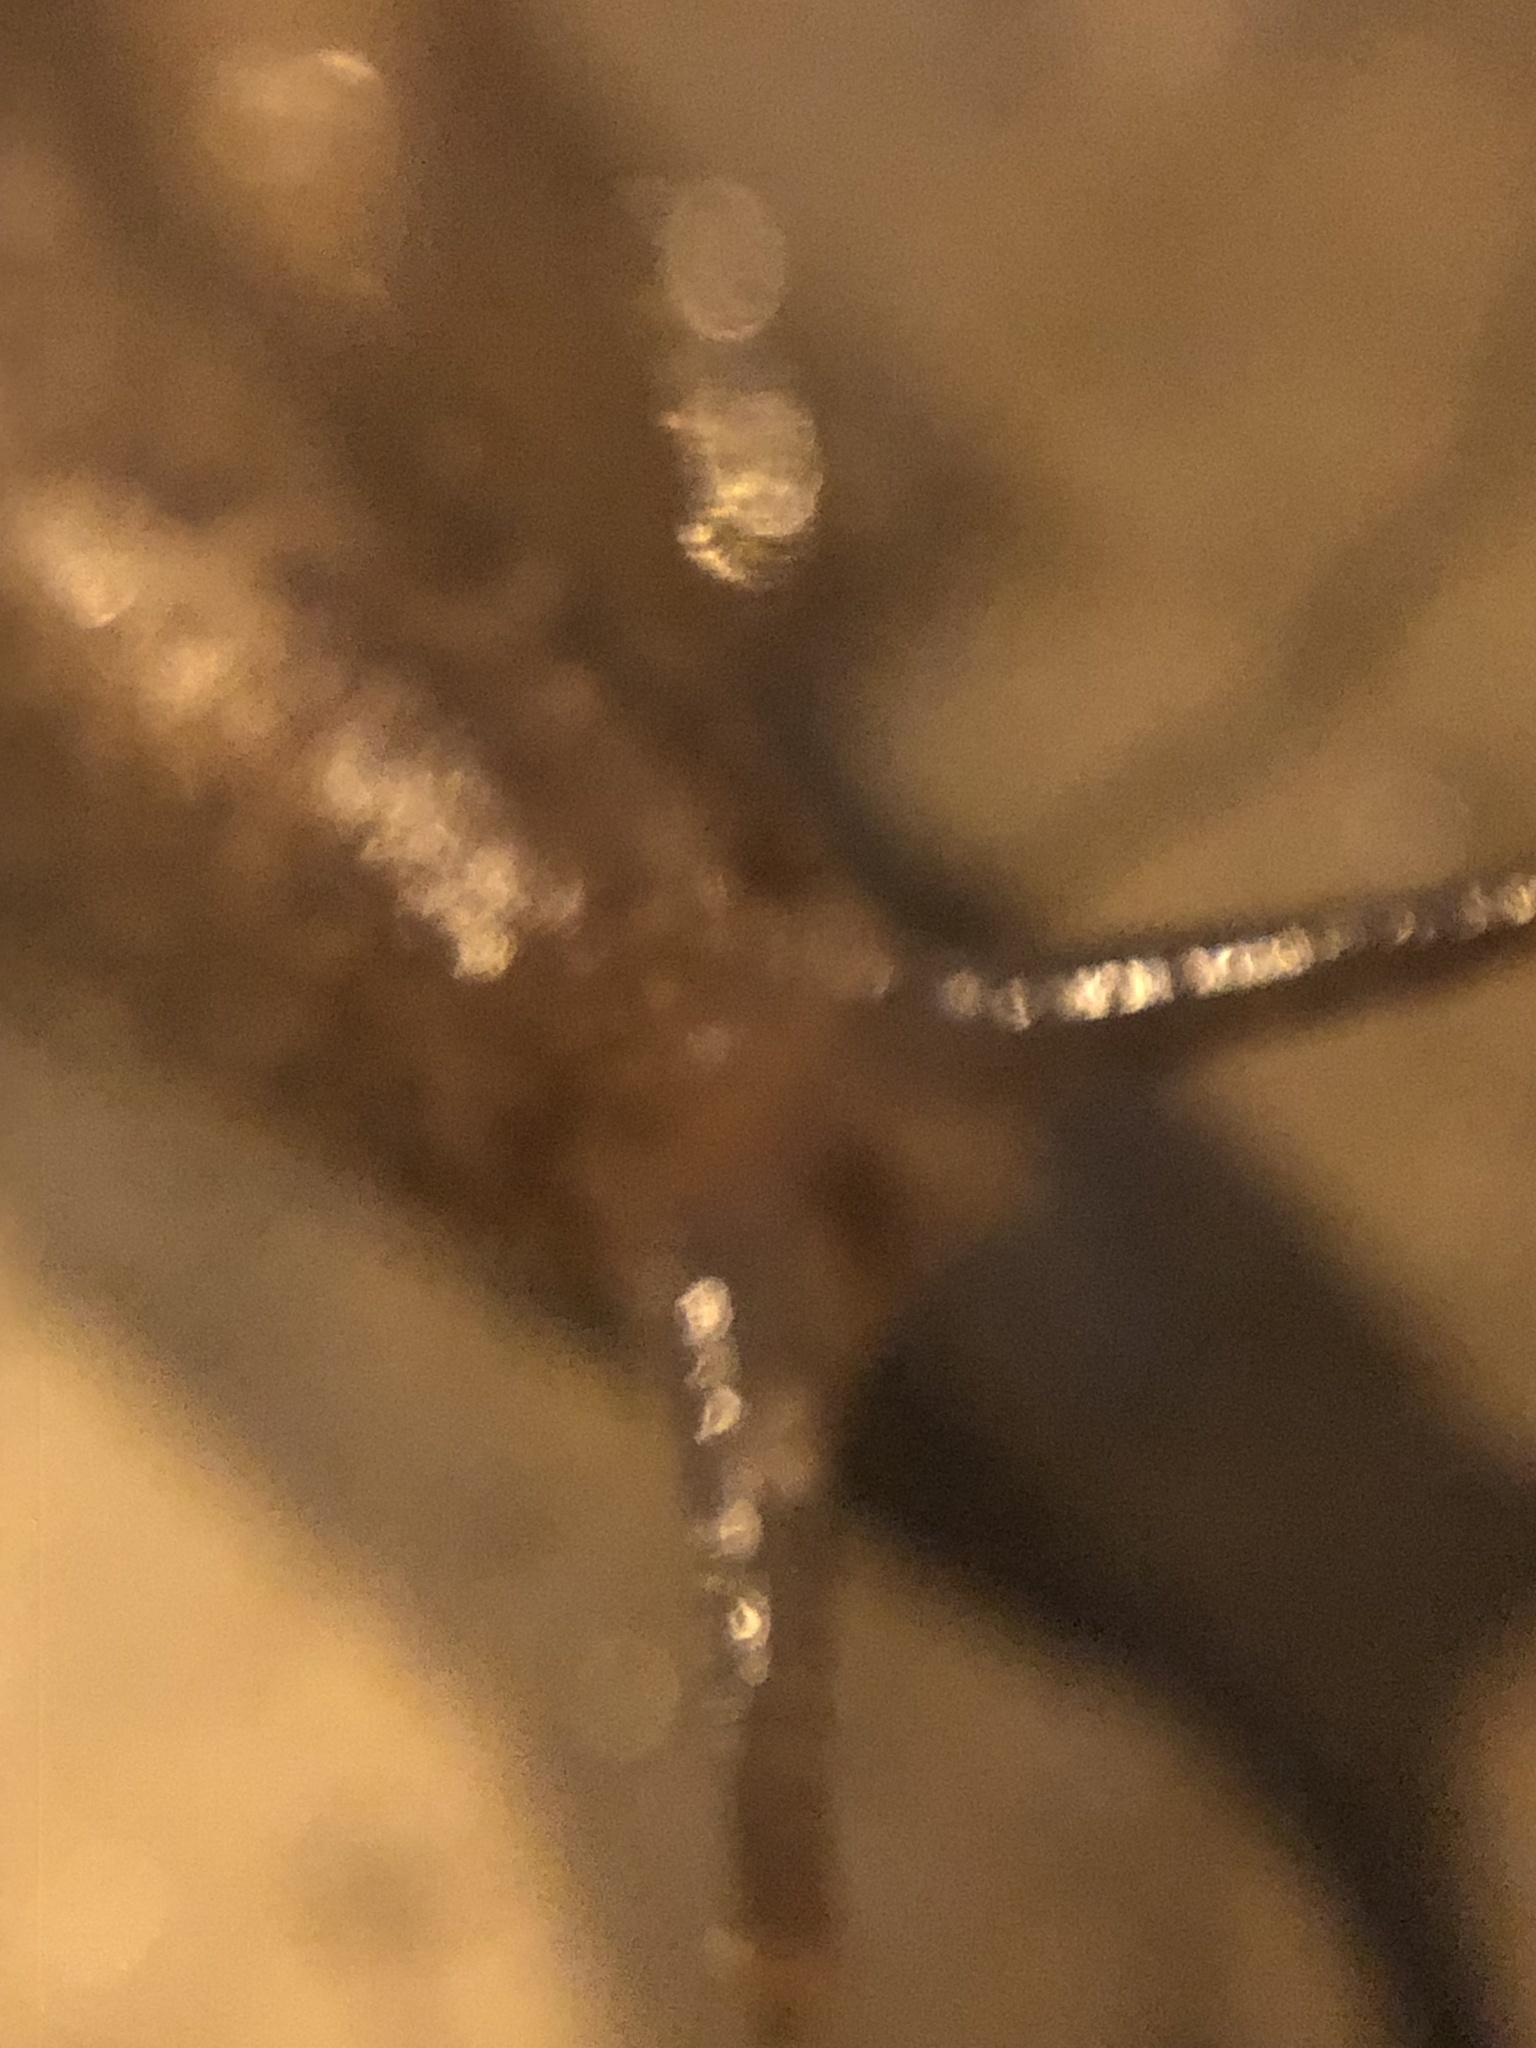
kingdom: Animalia
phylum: Mollusca
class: Gastropoda
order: Systellommatophora
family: Veronicellidae
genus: Heterovaginina
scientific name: Heterovaginina limayana
